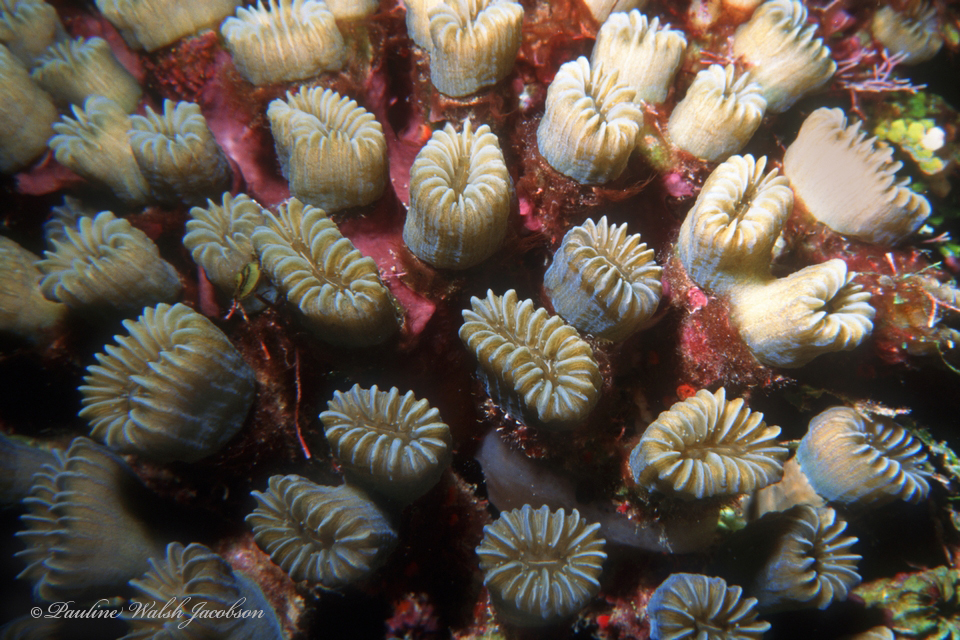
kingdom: Animalia
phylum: Cnidaria
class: Anthozoa
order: Scleractinia
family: Meandrinidae
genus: Eusmilia
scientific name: Eusmilia fastigiata
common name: Smooth flower coral
